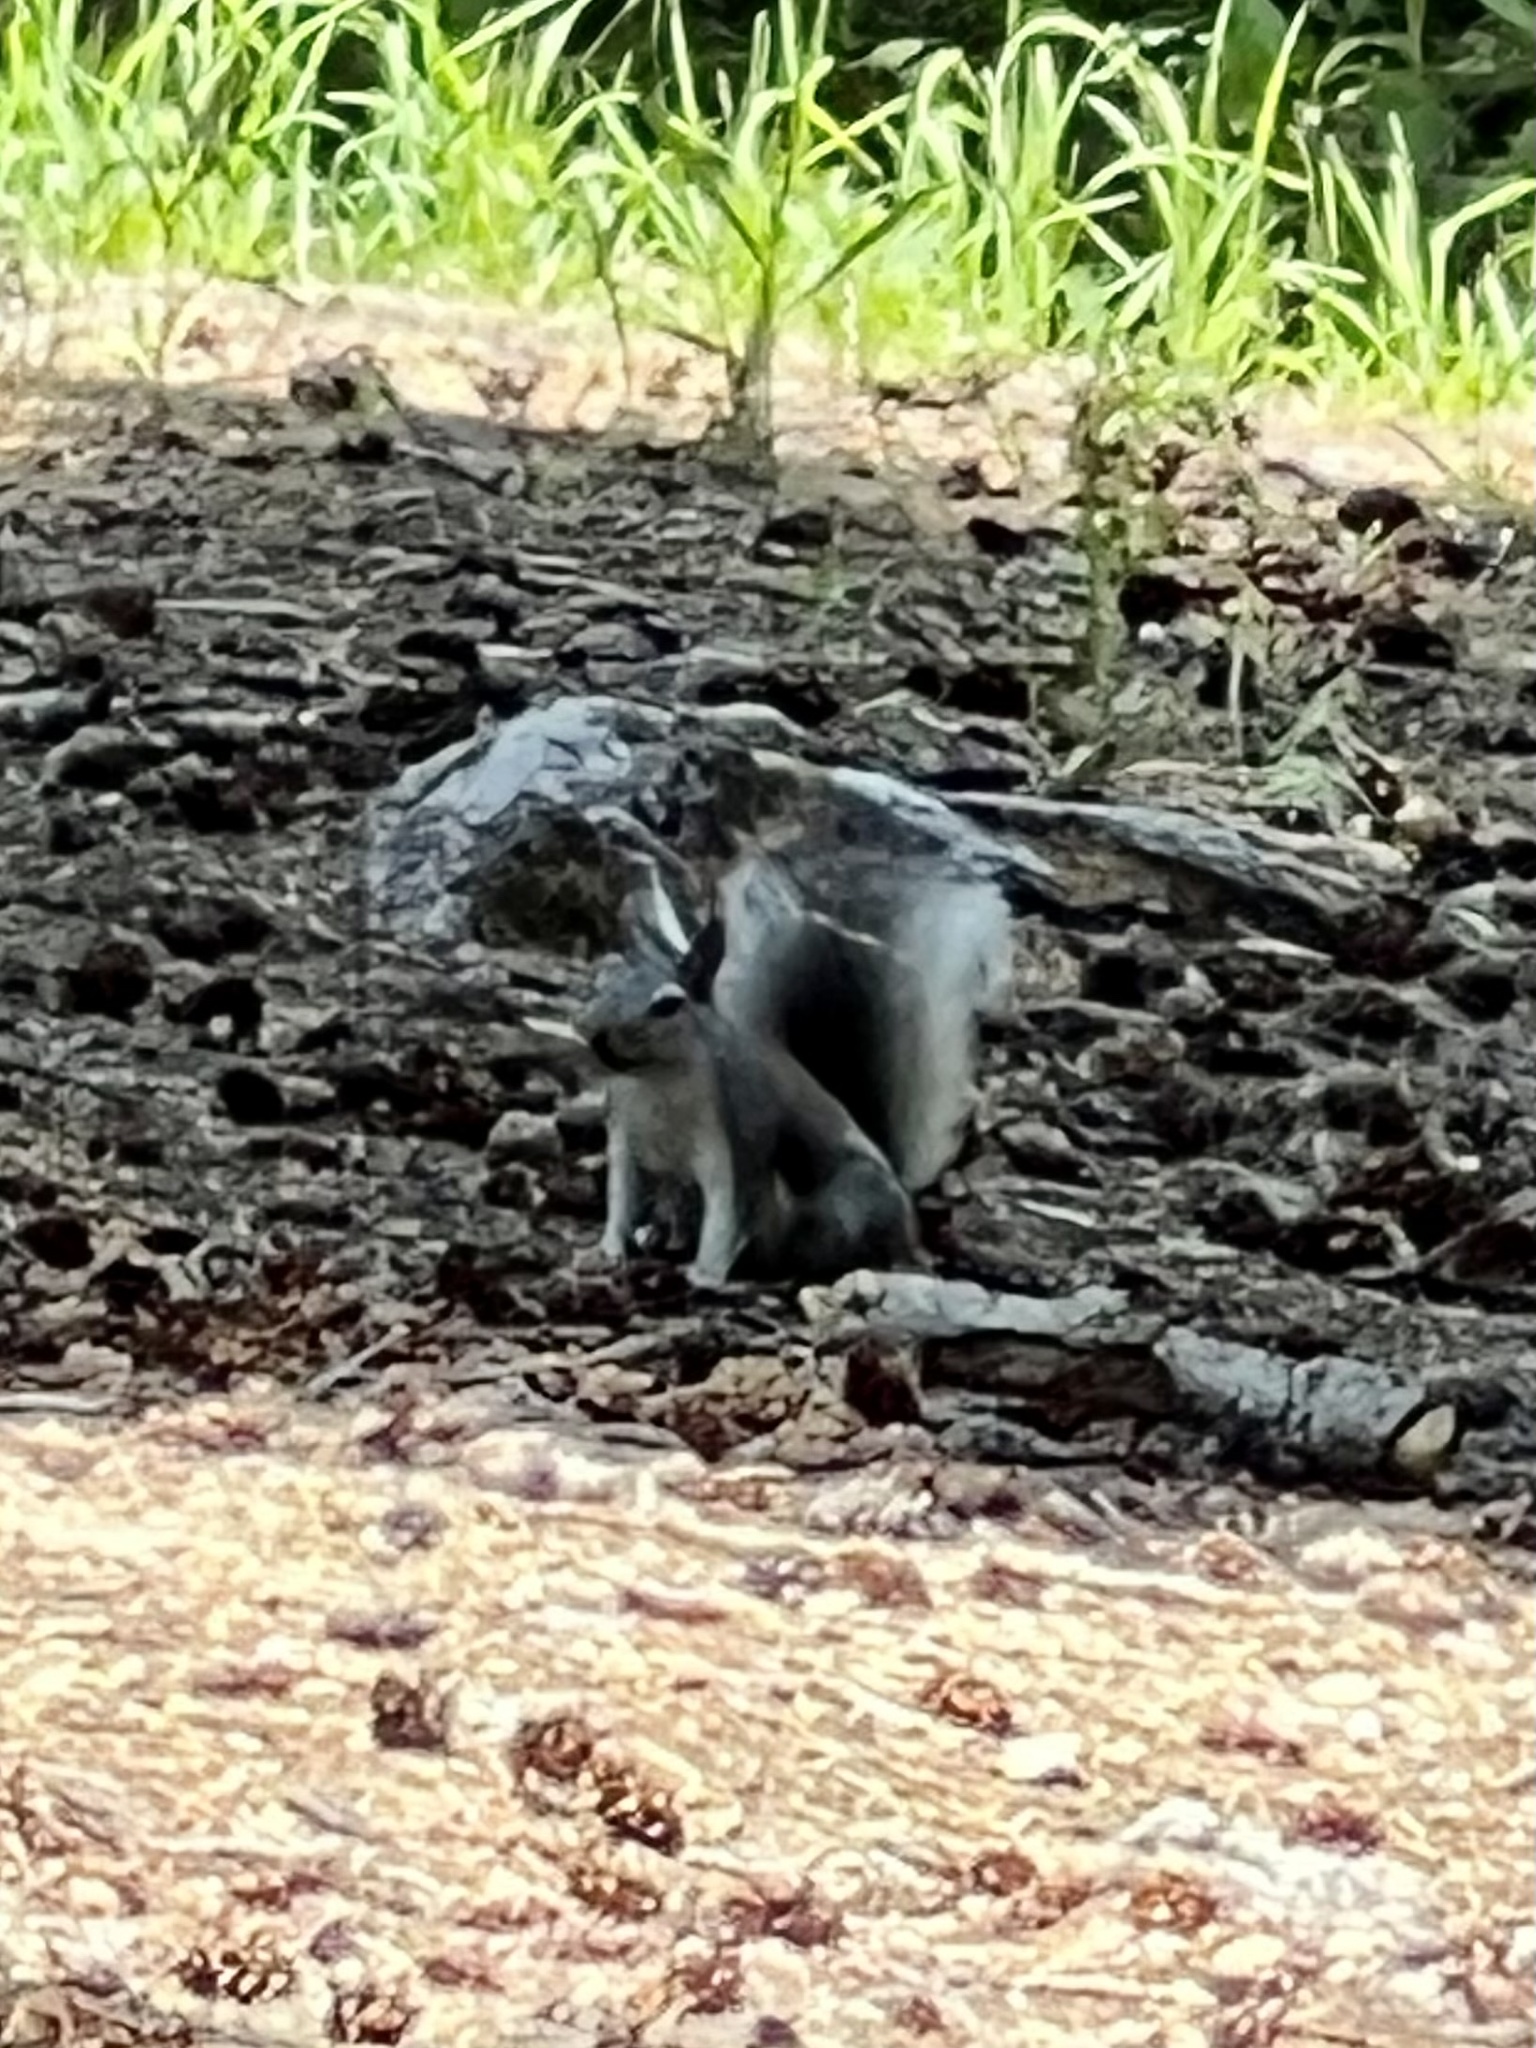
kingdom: Animalia
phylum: Chordata
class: Mammalia
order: Rodentia
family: Sciuridae
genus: Sciurus
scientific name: Sciurus aberti
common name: Abert's squirrel
